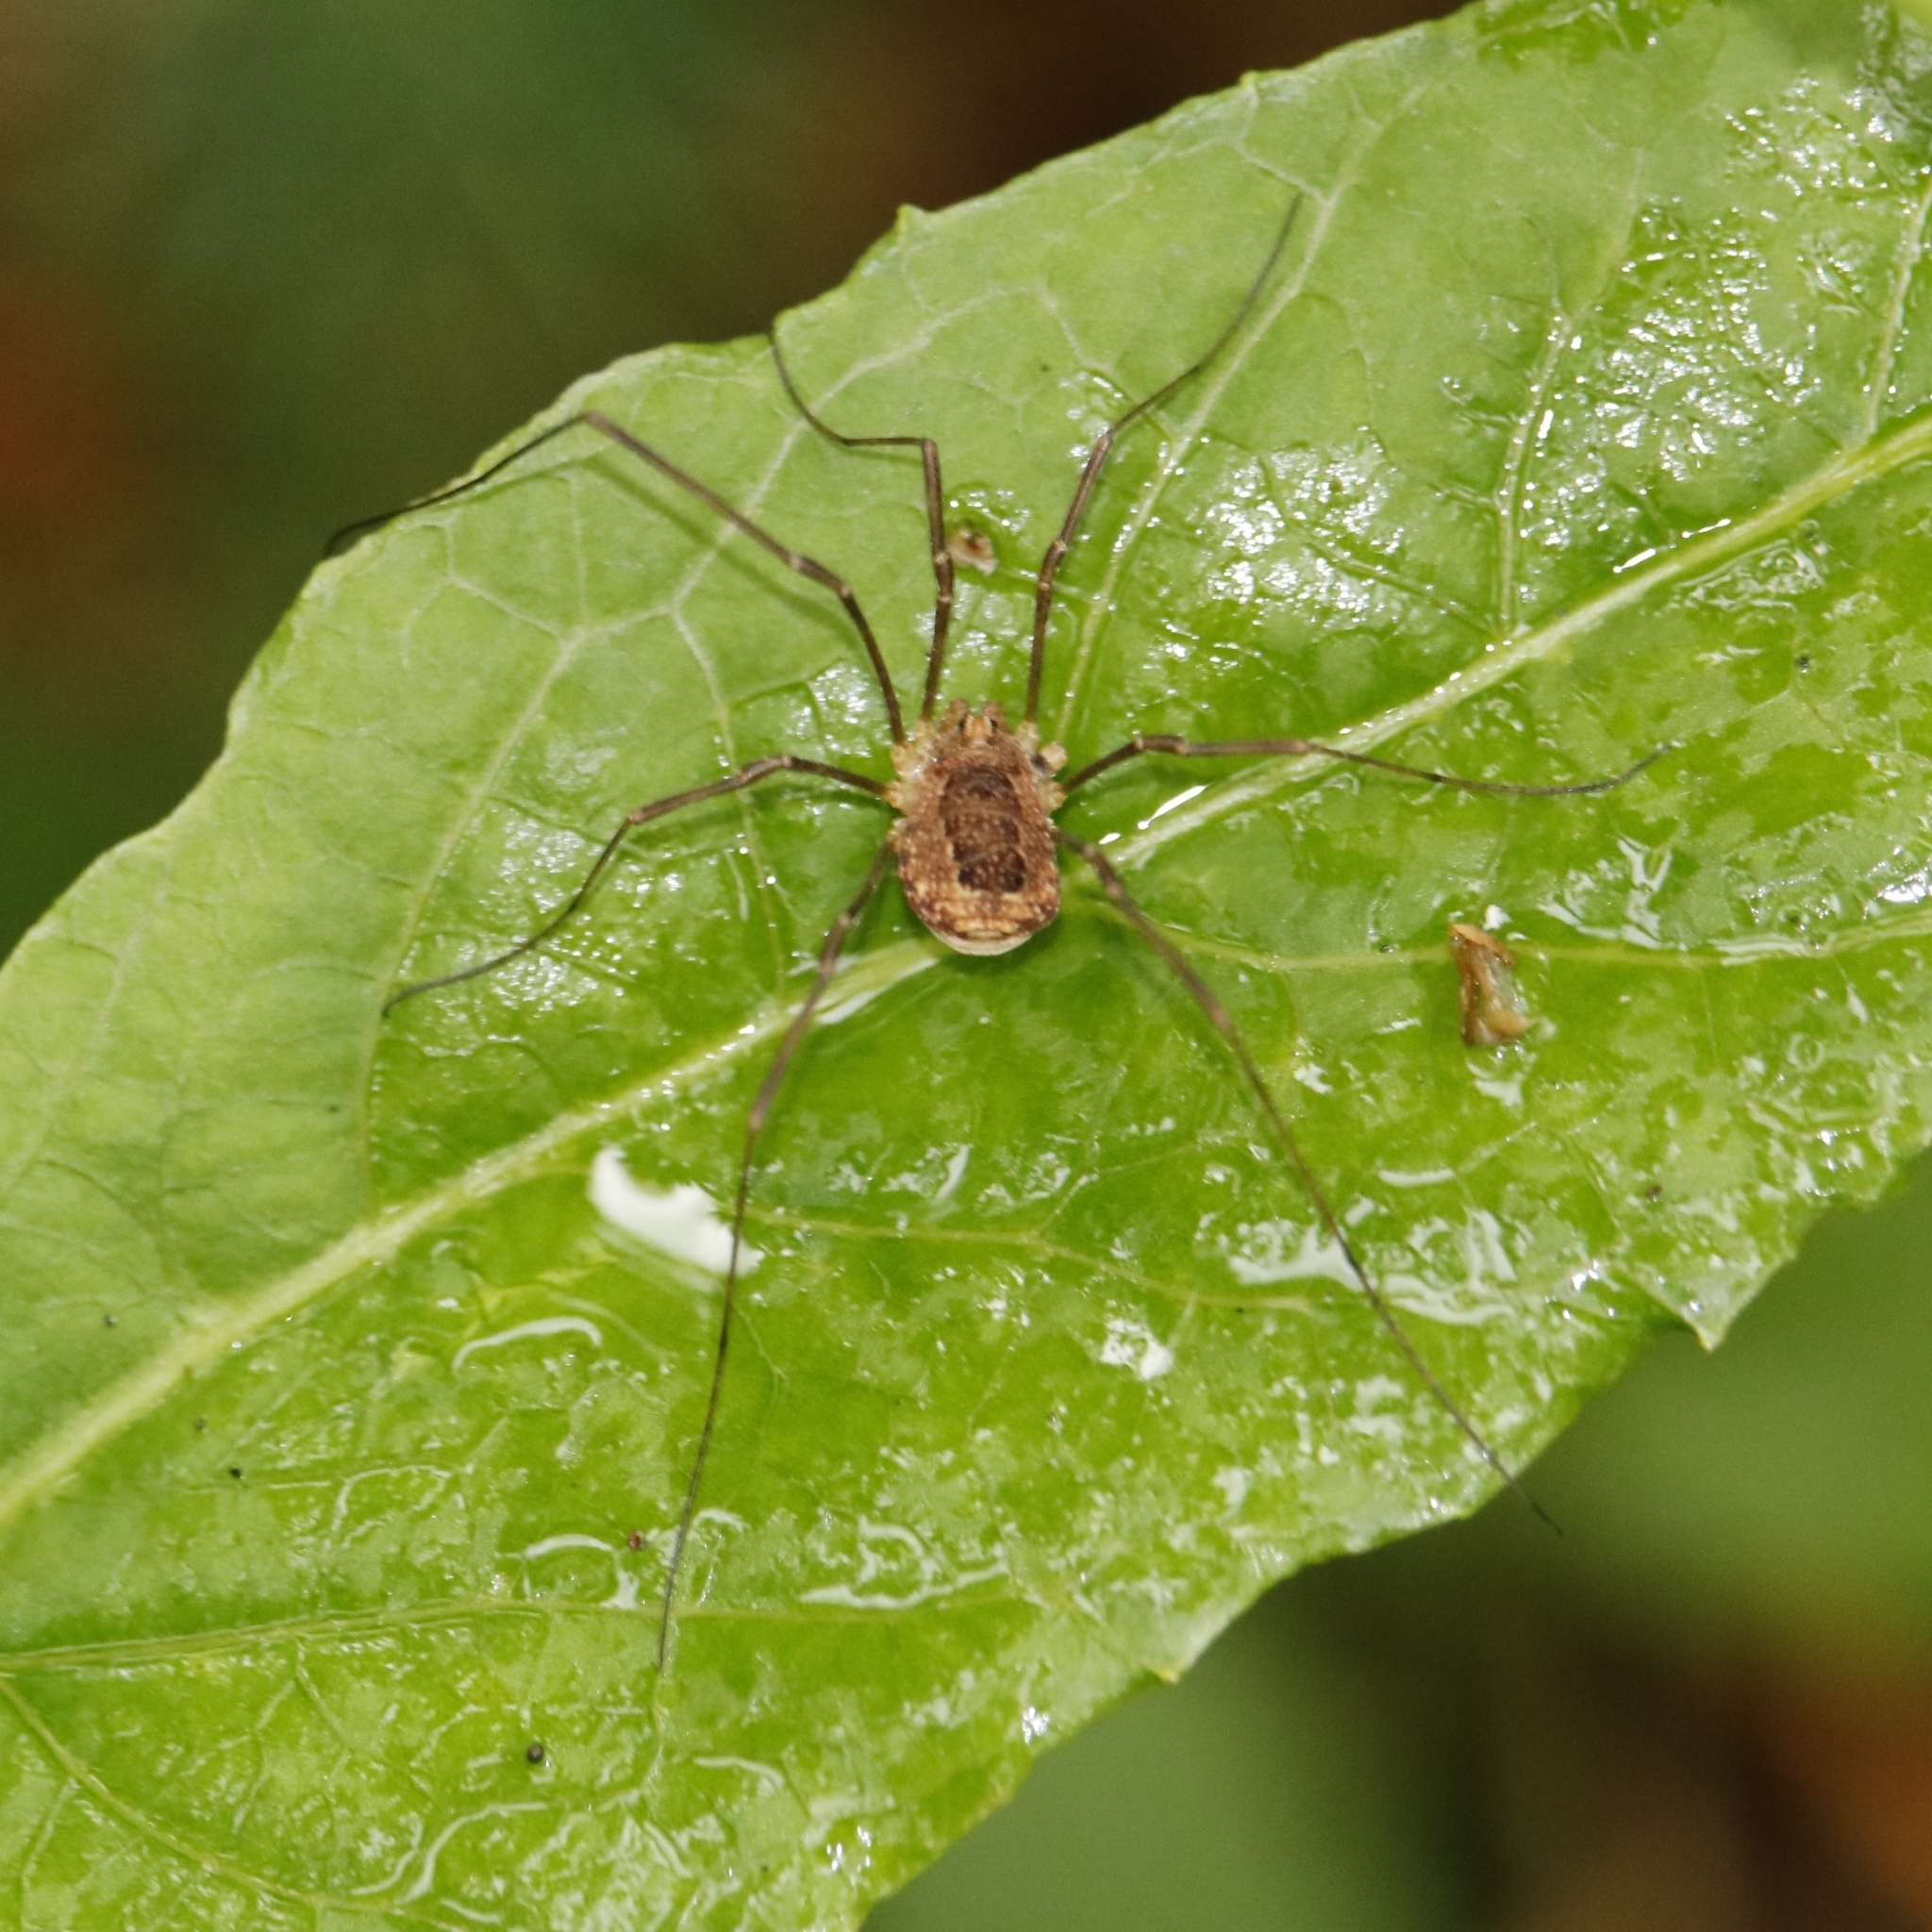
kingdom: Animalia
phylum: Arthropoda
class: Arachnida
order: Opiliones
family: Phalangiidae
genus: Rilaena
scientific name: Rilaena triangularis
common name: Spring harvestman
